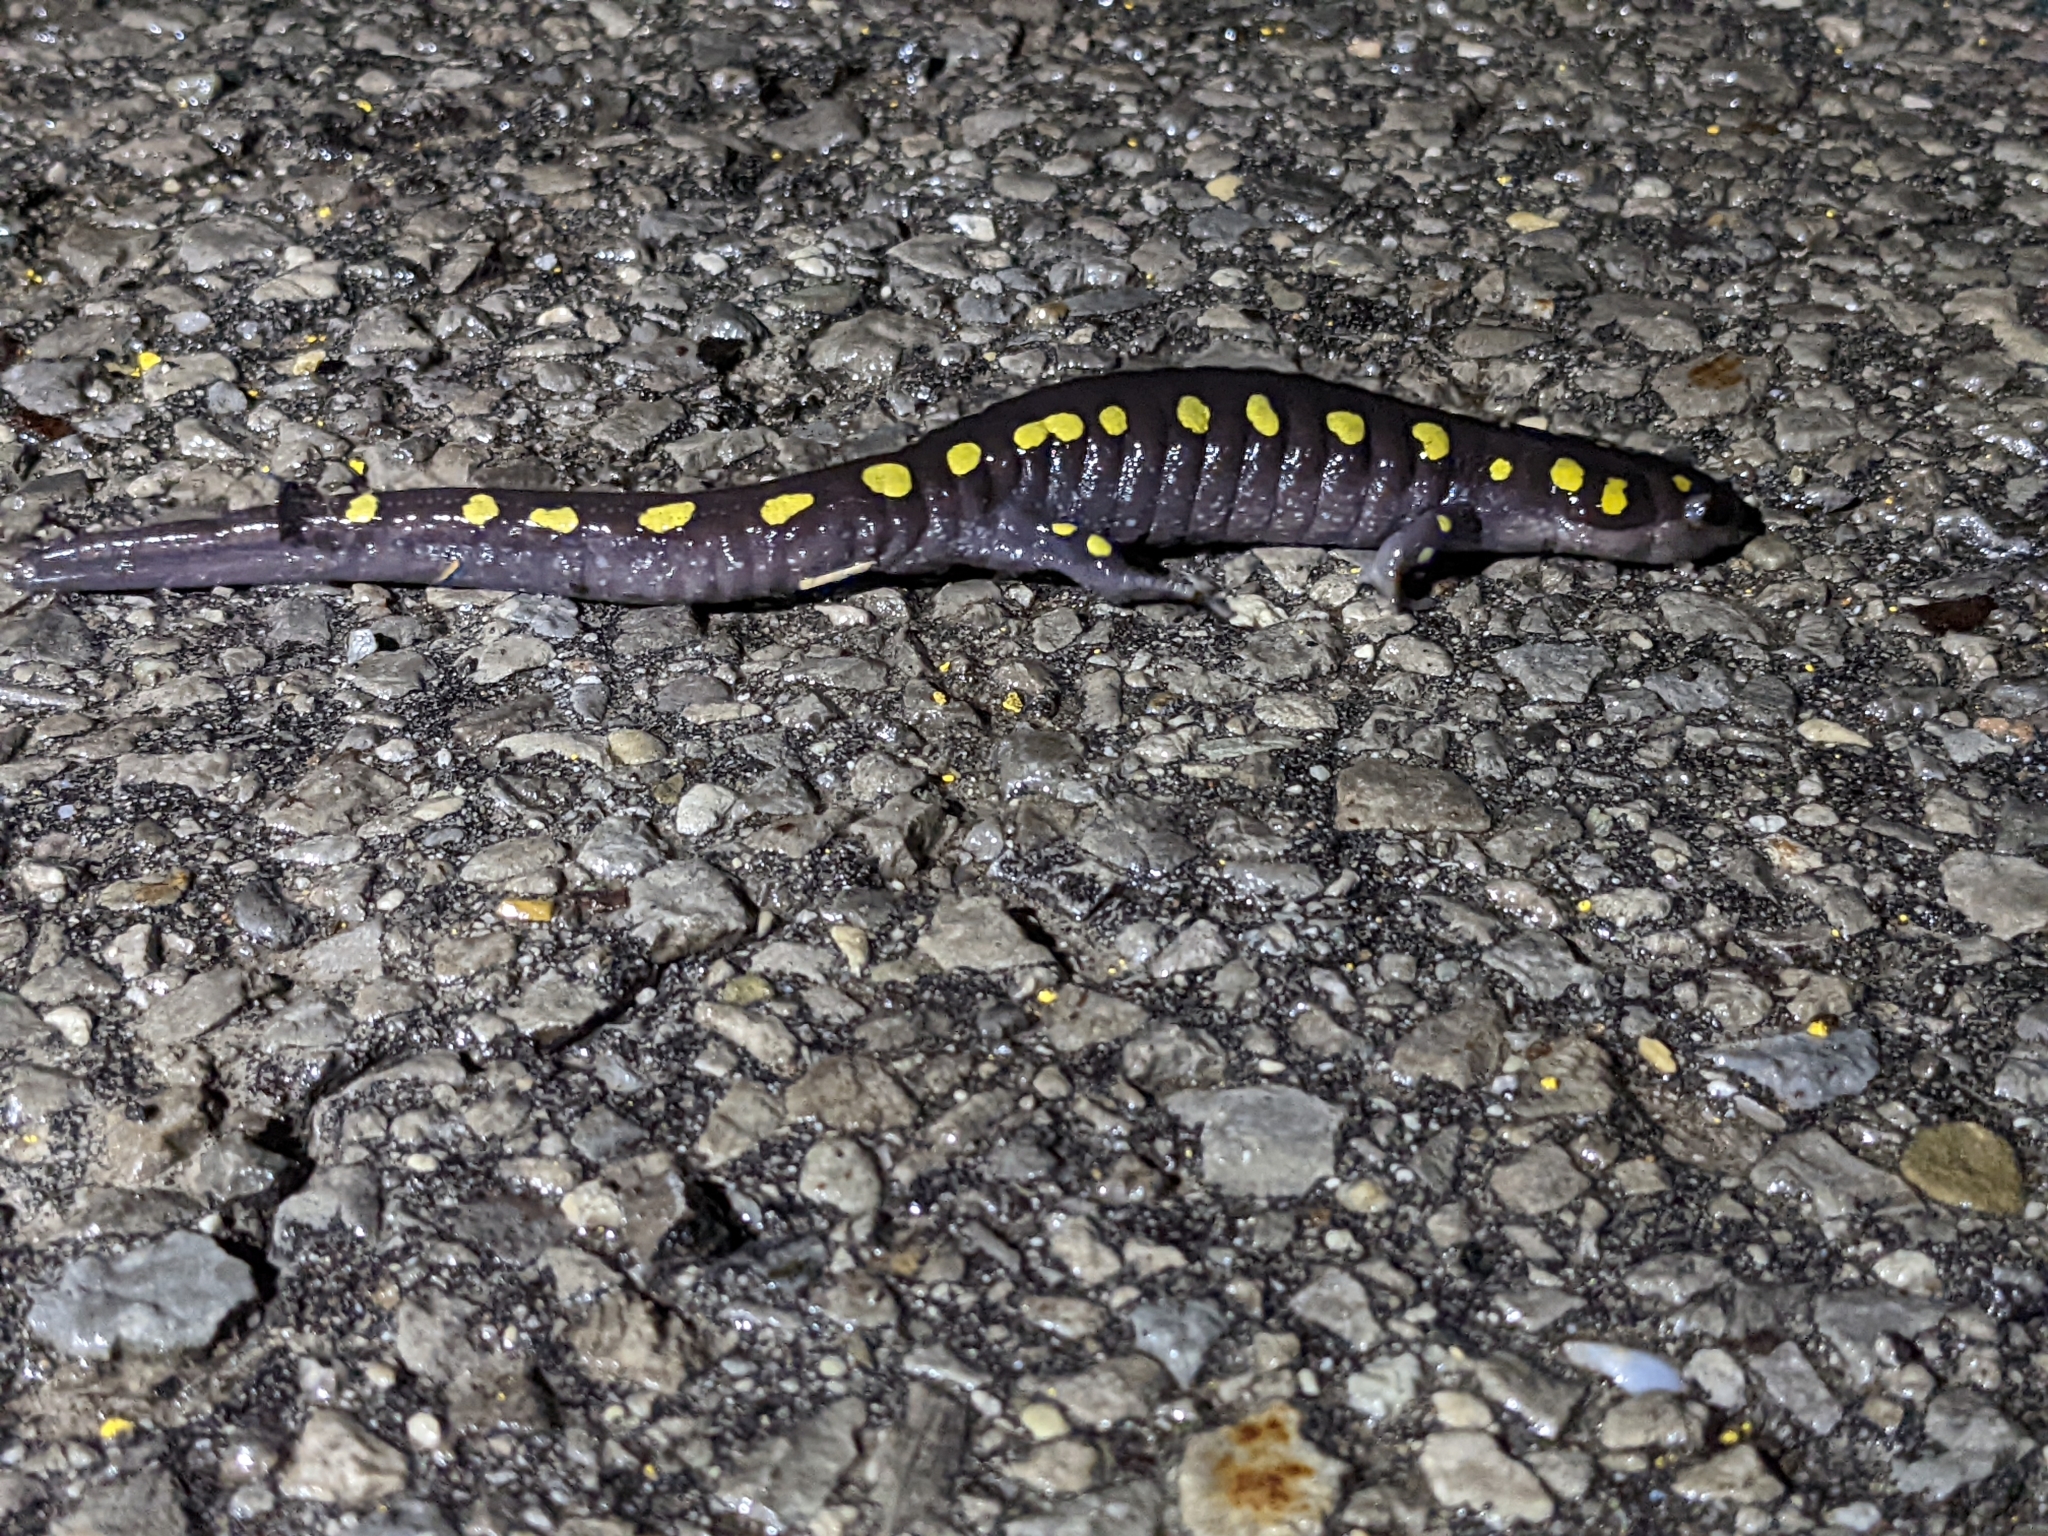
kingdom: Animalia
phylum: Chordata
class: Amphibia
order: Caudata
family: Ambystomatidae
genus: Ambystoma
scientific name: Ambystoma maculatum
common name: Spotted salamander
